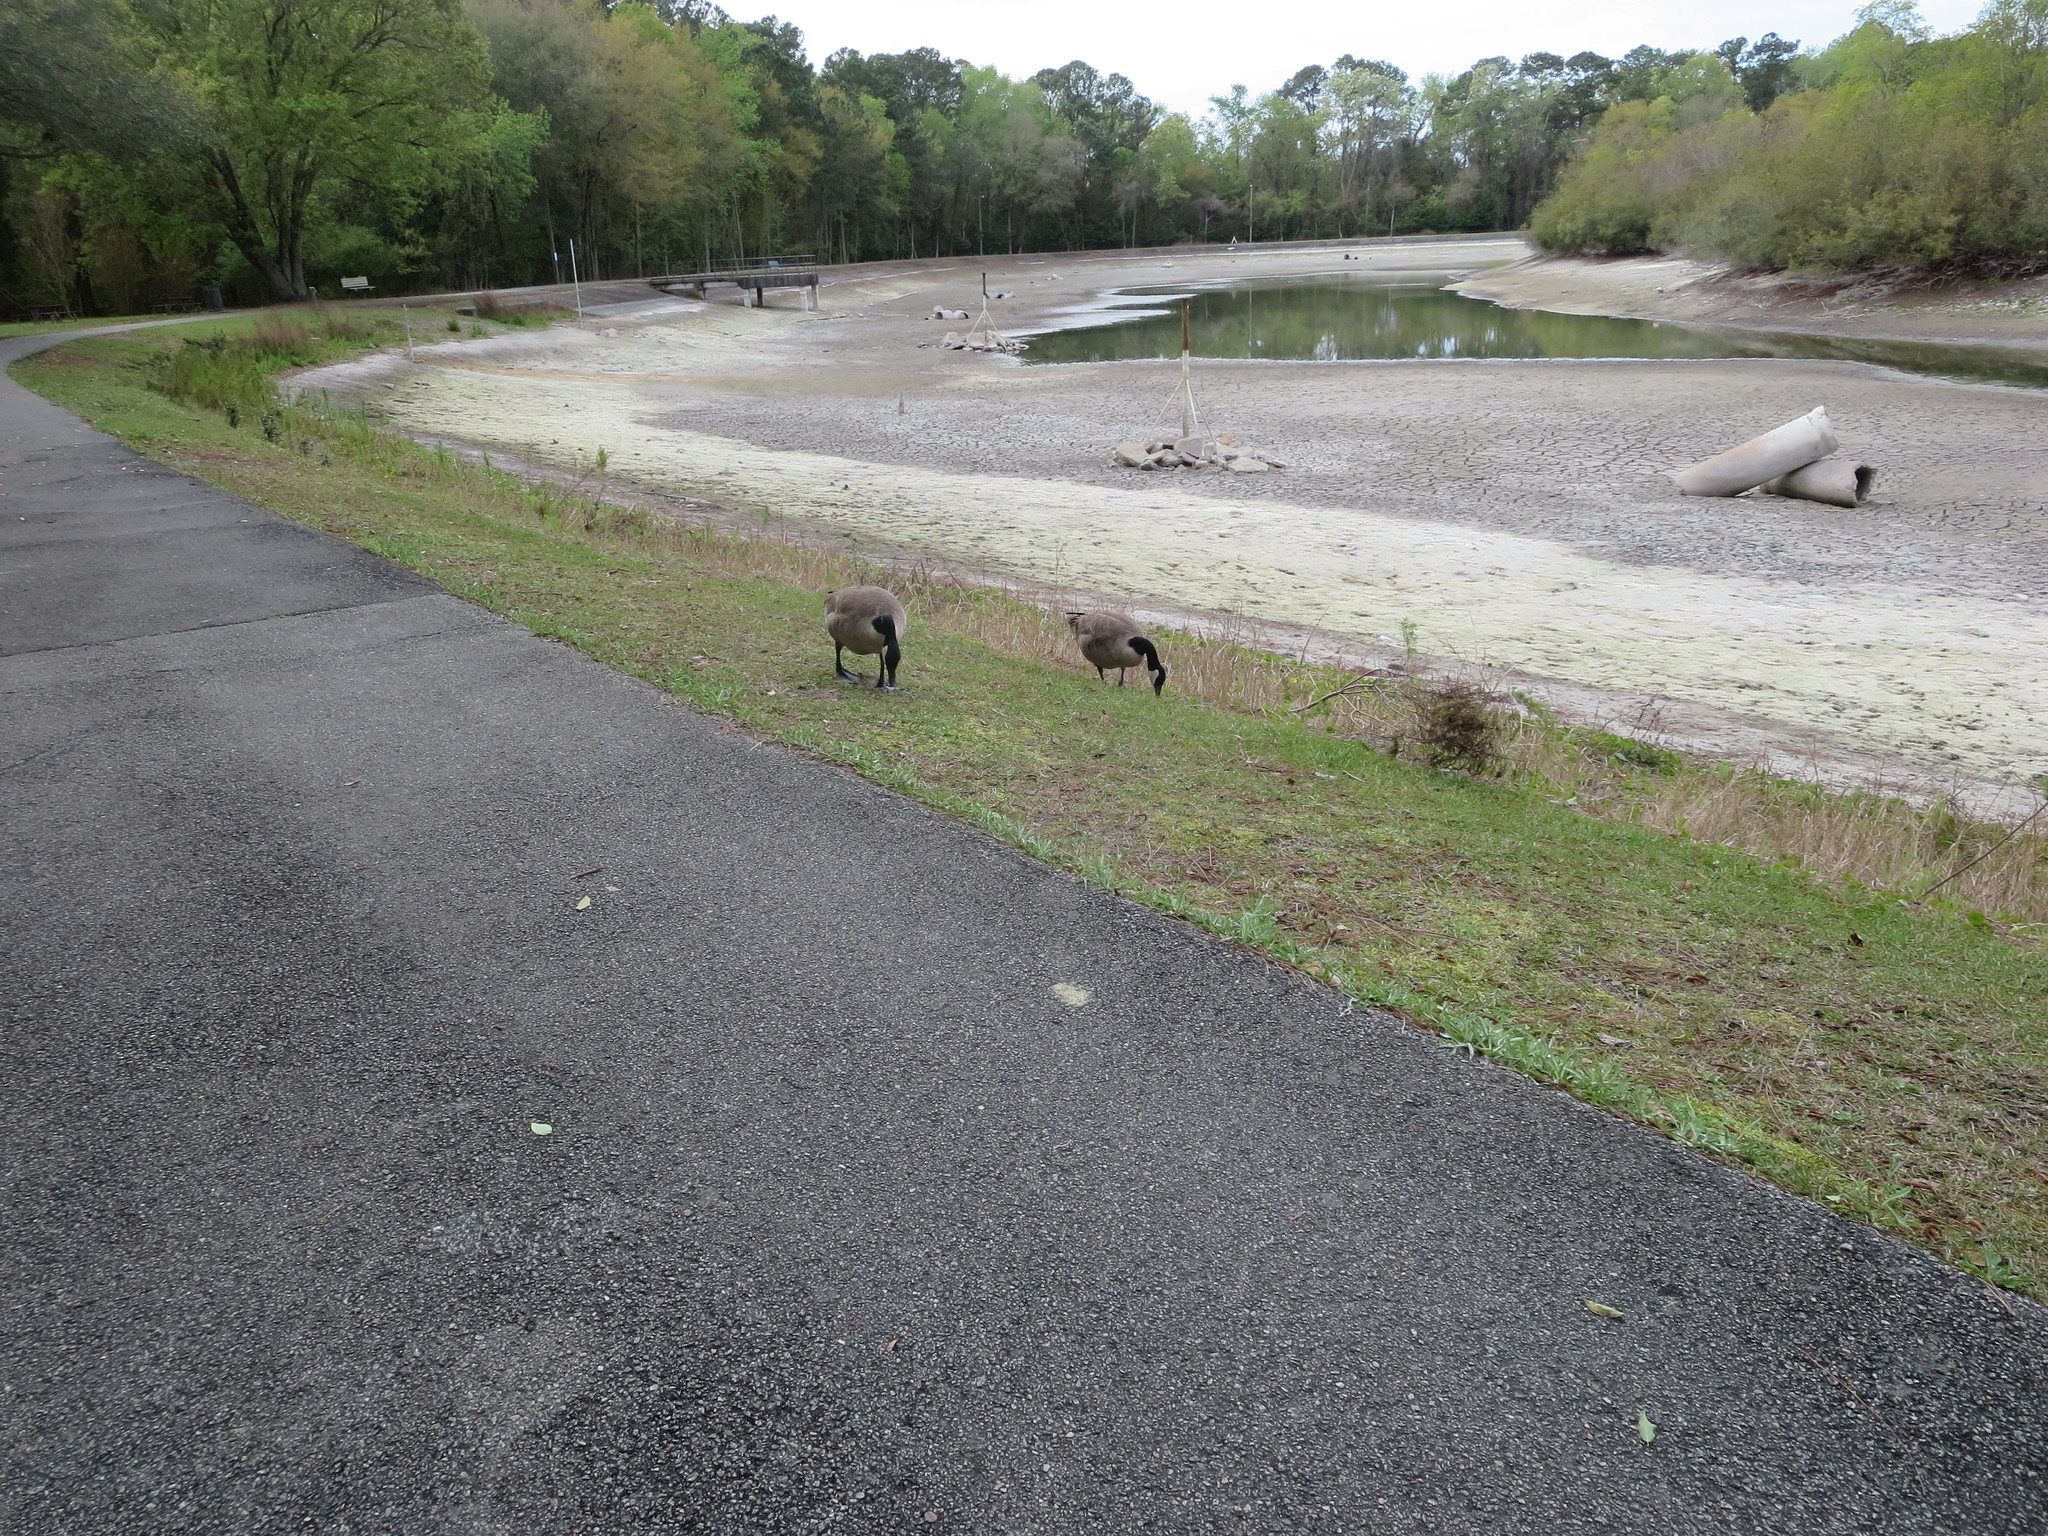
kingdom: Animalia
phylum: Chordata
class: Aves
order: Anseriformes
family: Anatidae
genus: Branta
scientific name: Branta canadensis
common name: Canada goose
